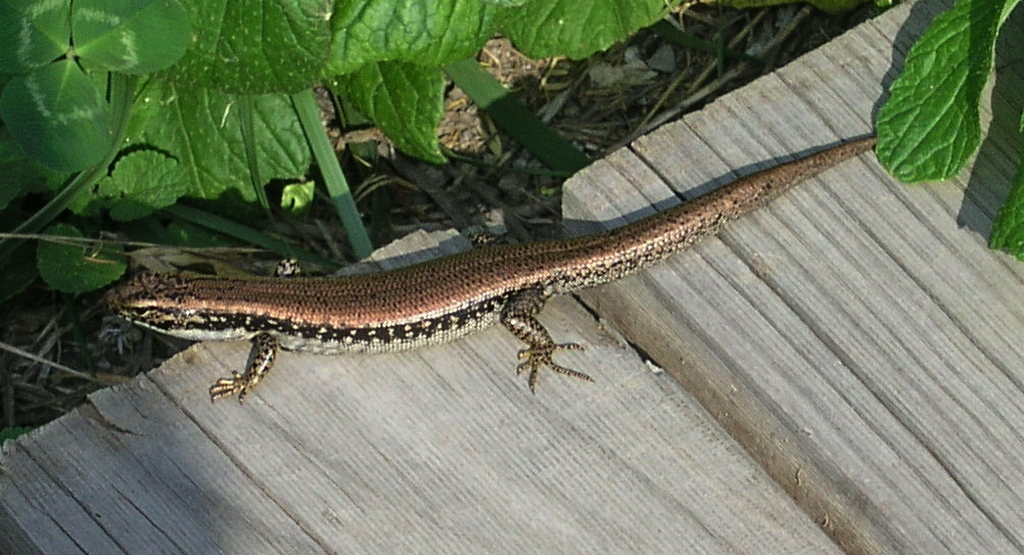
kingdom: Animalia
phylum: Chordata
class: Squamata
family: Scincidae
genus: Eulamprus
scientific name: Eulamprus heatwolei
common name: Warm-temperate water-skink
